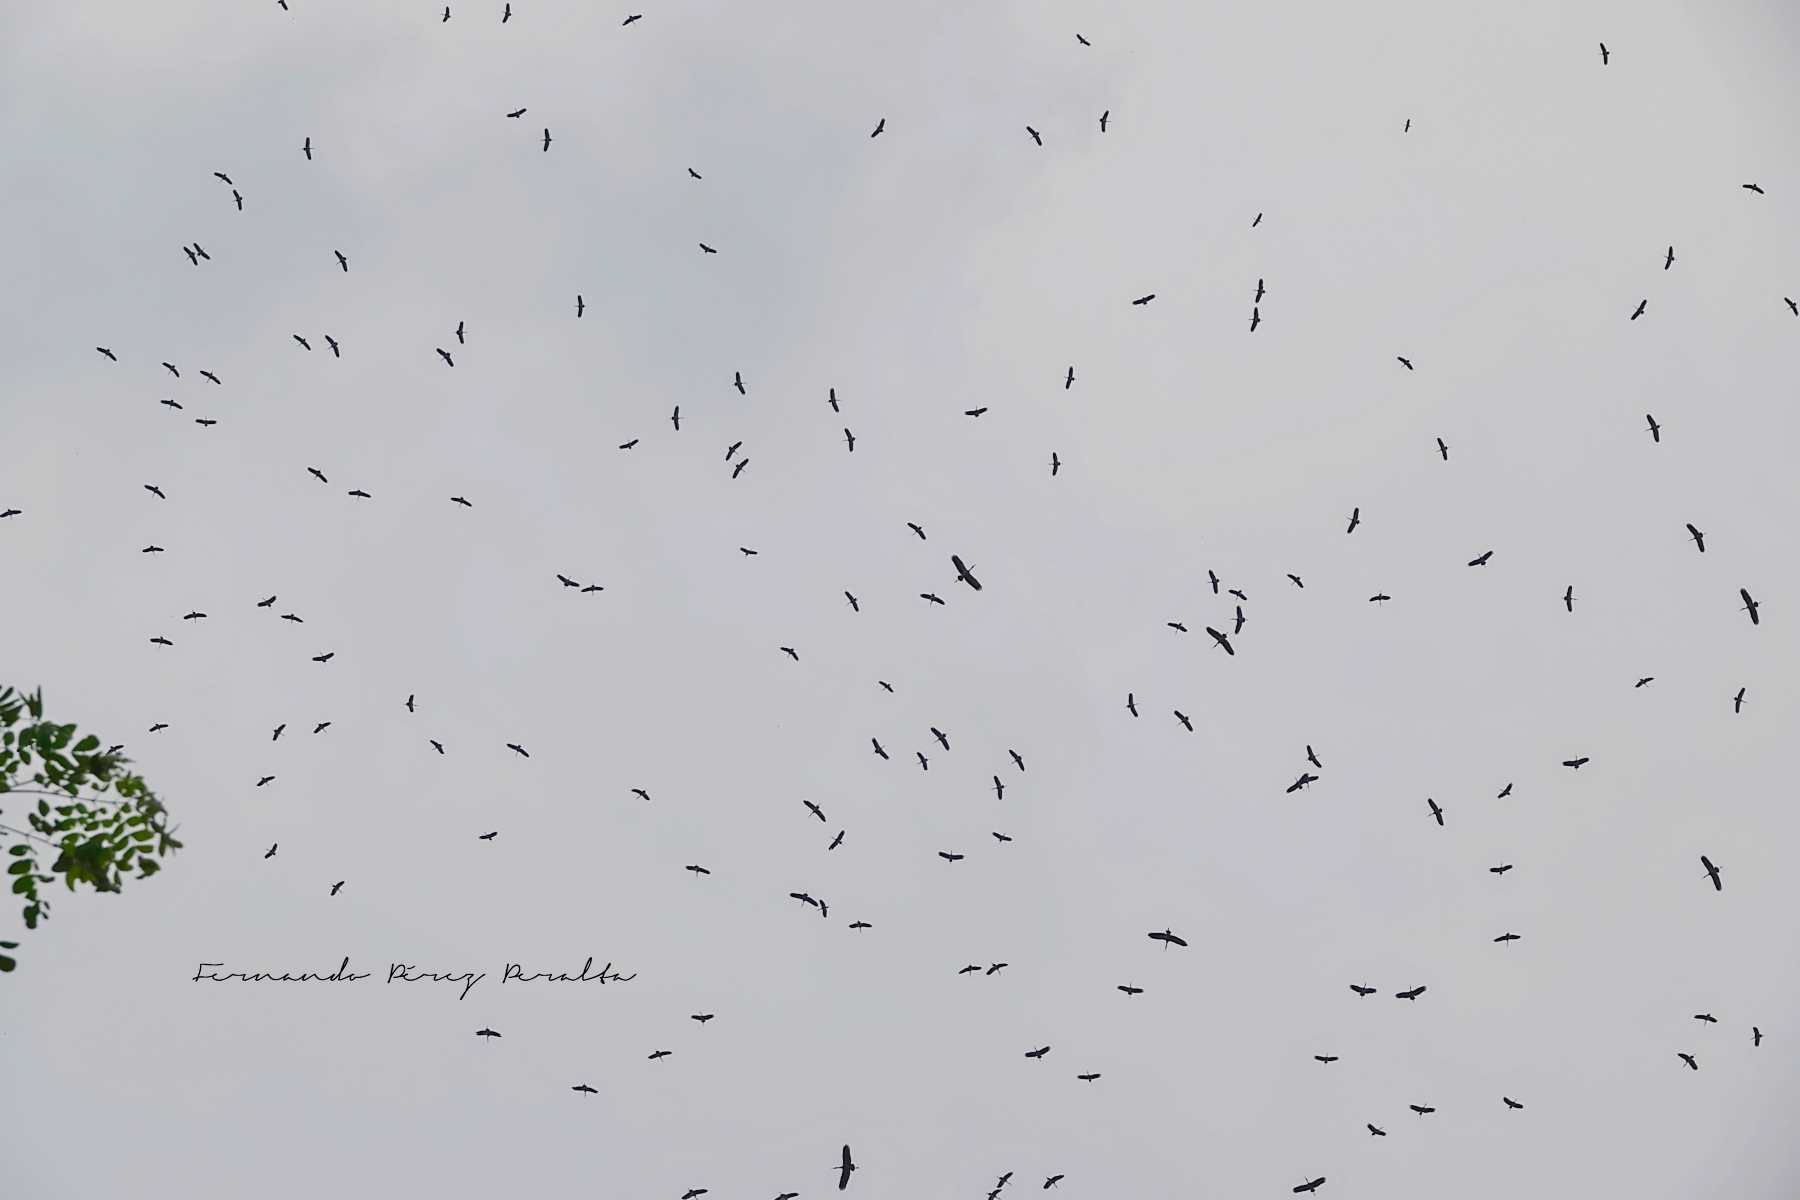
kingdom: Animalia
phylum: Chordata
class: Aves
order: Ciconiiformes
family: Ciconiidae
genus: Anastomus
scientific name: Anastomus oscitans
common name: Asian openbill
